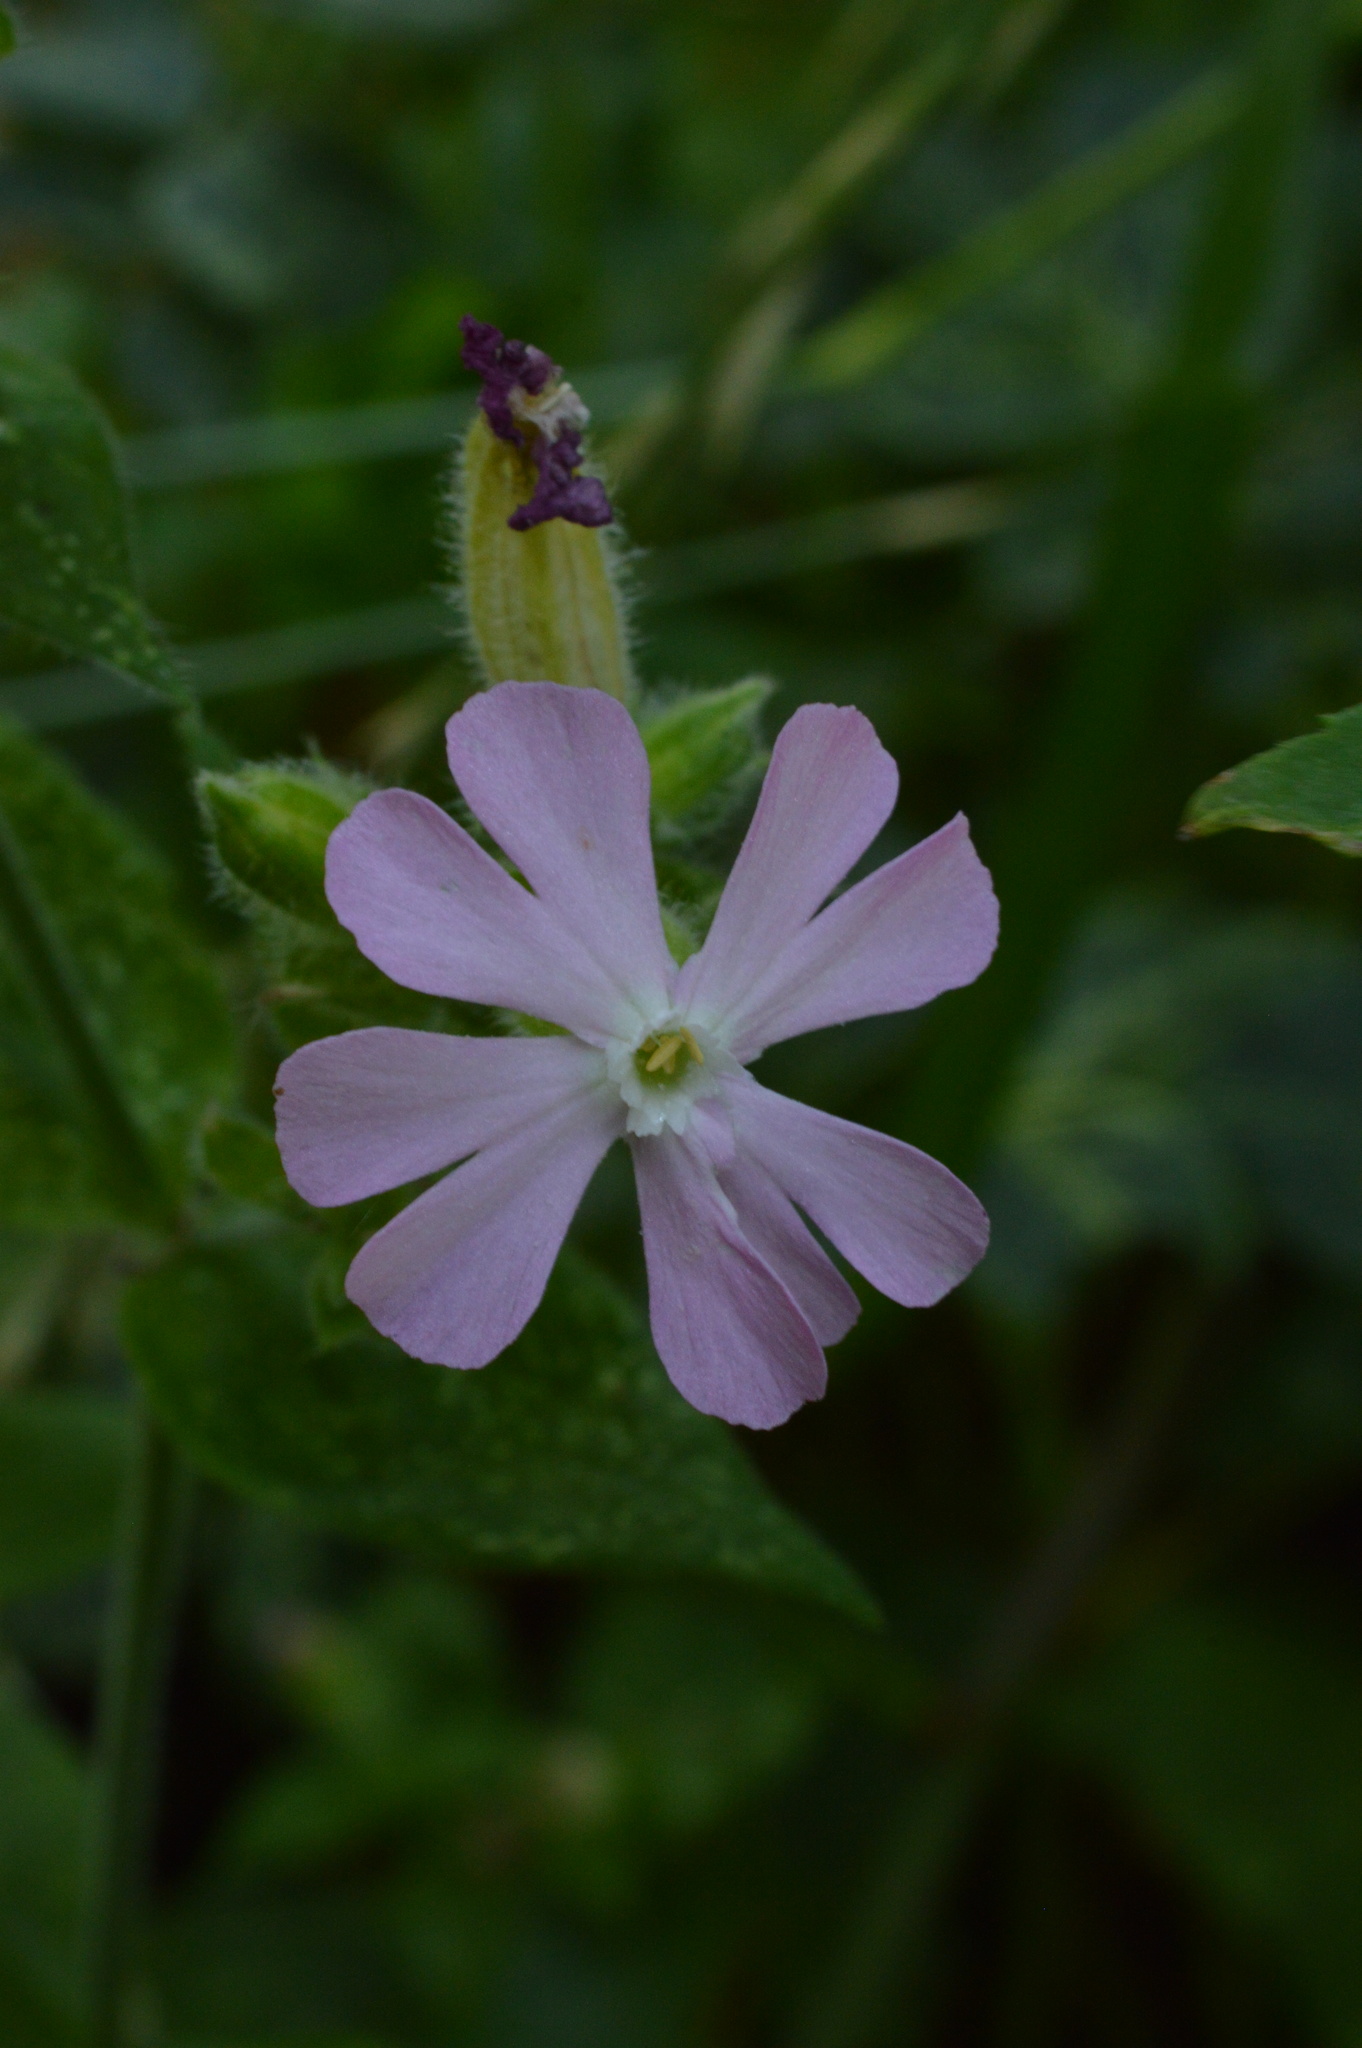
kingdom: Plantae
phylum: Tracheophyta
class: Magnoliopsida
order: Caryophyllales
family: Caryophyllaceae
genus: Silene
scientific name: Silene dioica
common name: Red campion
